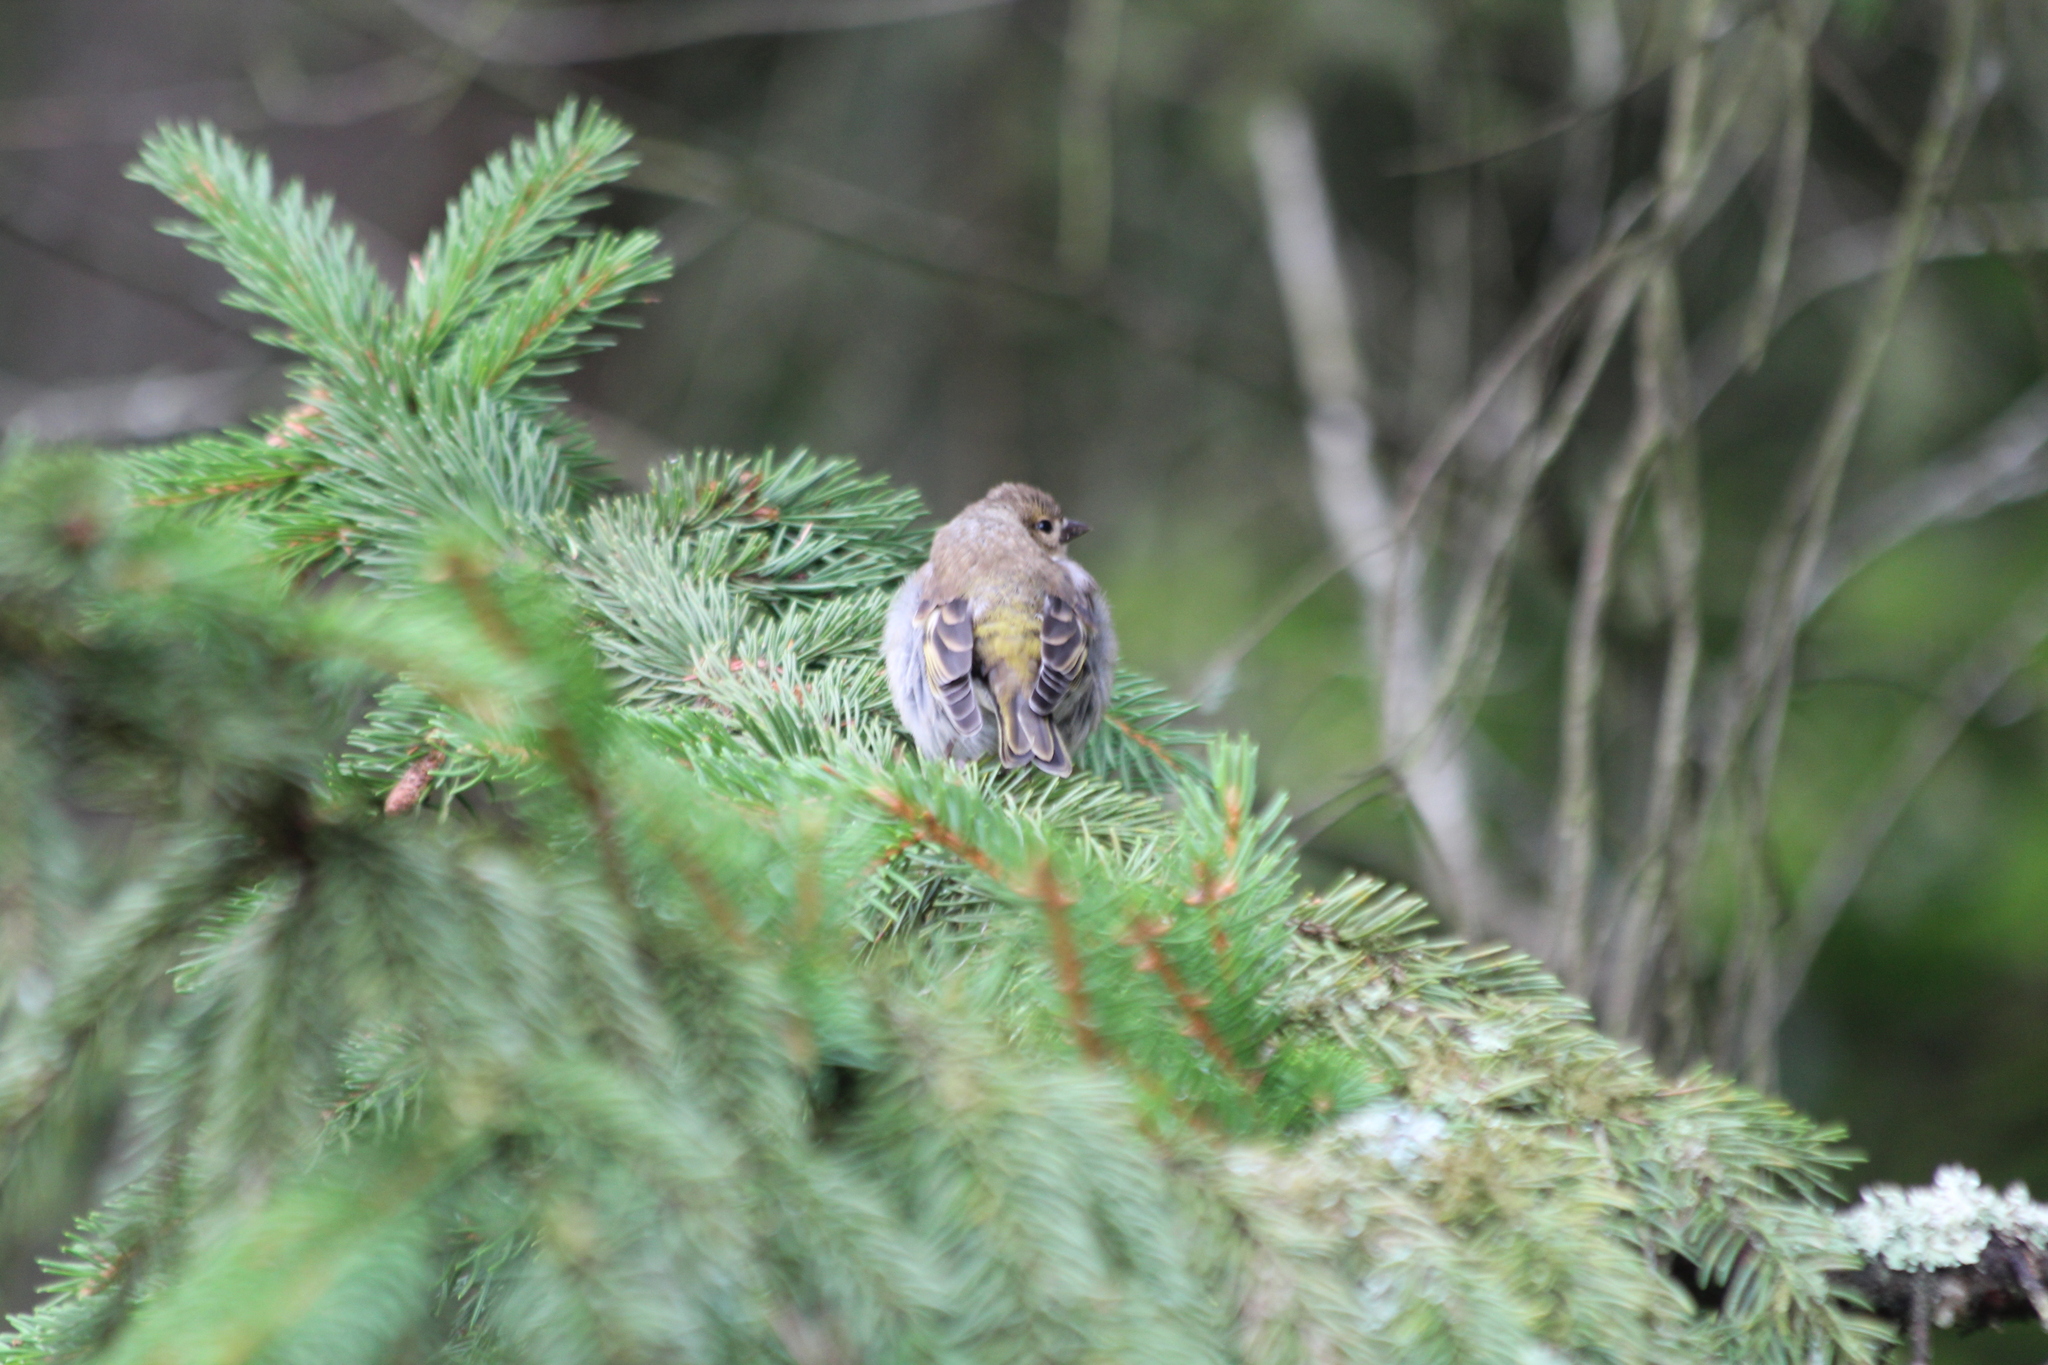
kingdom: Animalia
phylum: Chordata
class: Aves
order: Passeriformes
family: Fringillidae
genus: Fringilla
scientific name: Fringilla coelebs
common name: Common chaffinch
